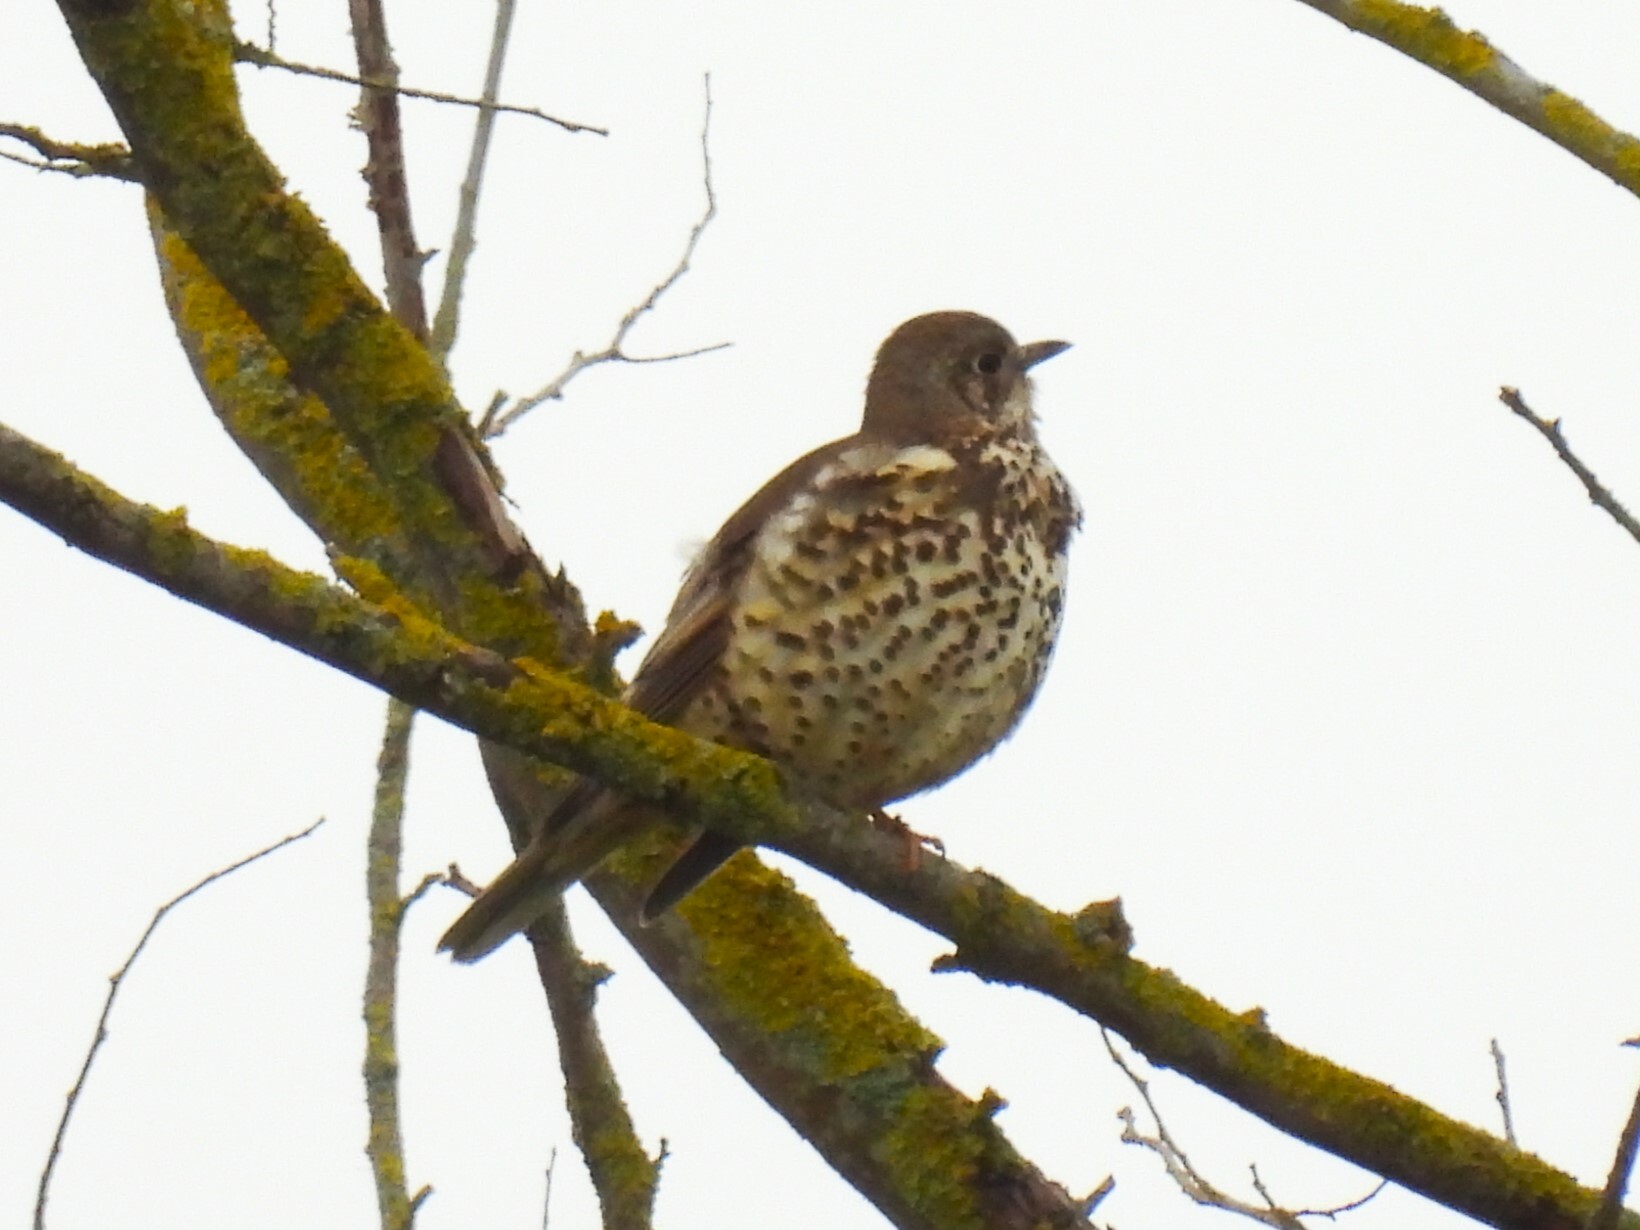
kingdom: Animalia
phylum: Chordata
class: Aves
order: Passeriformes
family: Turdidae
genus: Turdus
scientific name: Turdus viscivorus
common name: Mistle thrush
